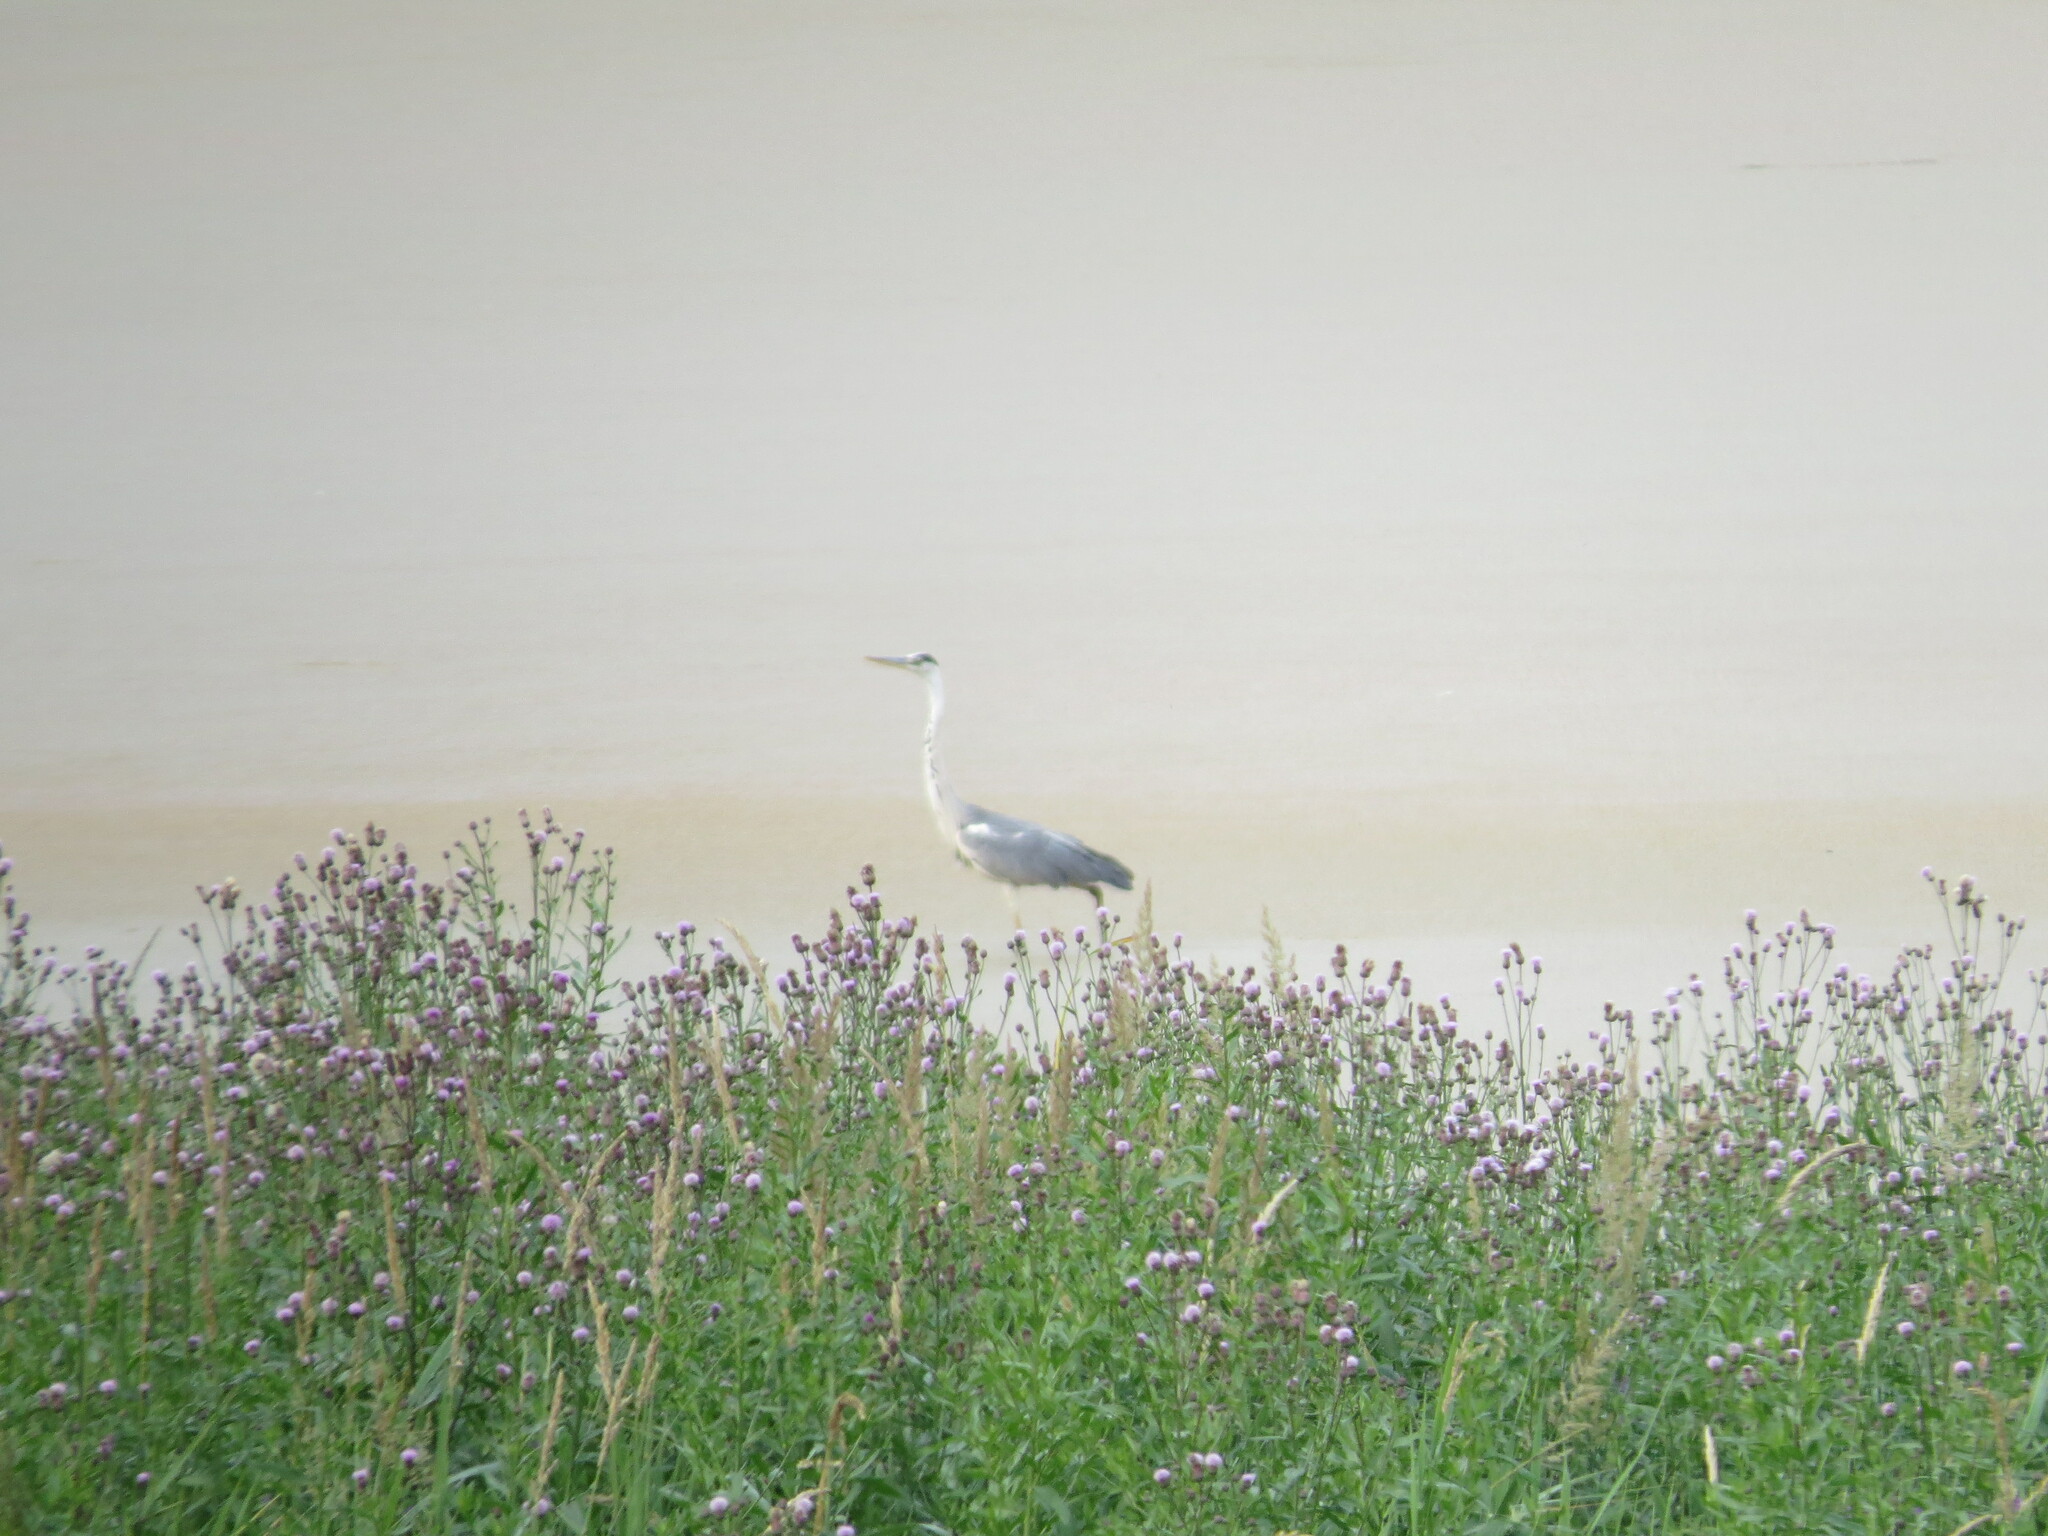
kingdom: Animalia
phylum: Chordata
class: Aves
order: Pelecaniformes
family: Ardeidae
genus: Ardea
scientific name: Ardea cinerea
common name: Grey heron
